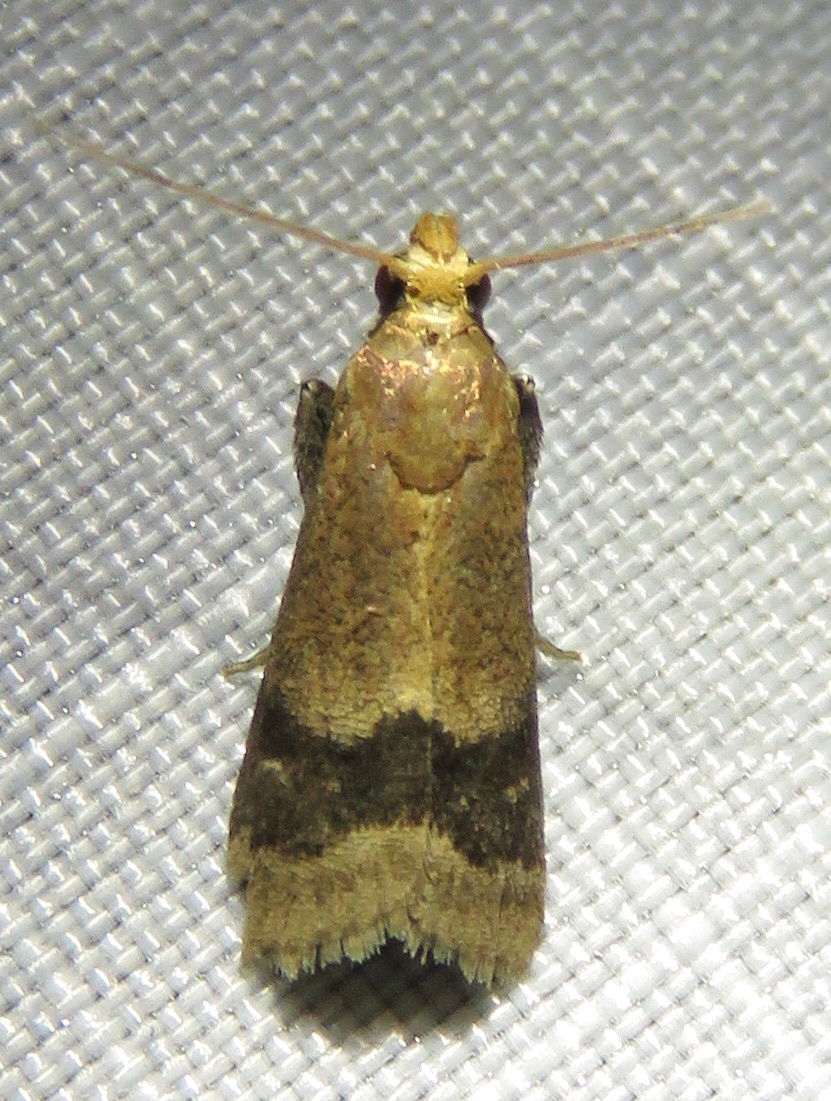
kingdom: Animalia
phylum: Arthropoda
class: Insecta
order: Lepidoptera
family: Pyralidae
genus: Eulogia
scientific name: Eulogia ochrifrontella
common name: Broad-banded eulogia moth
